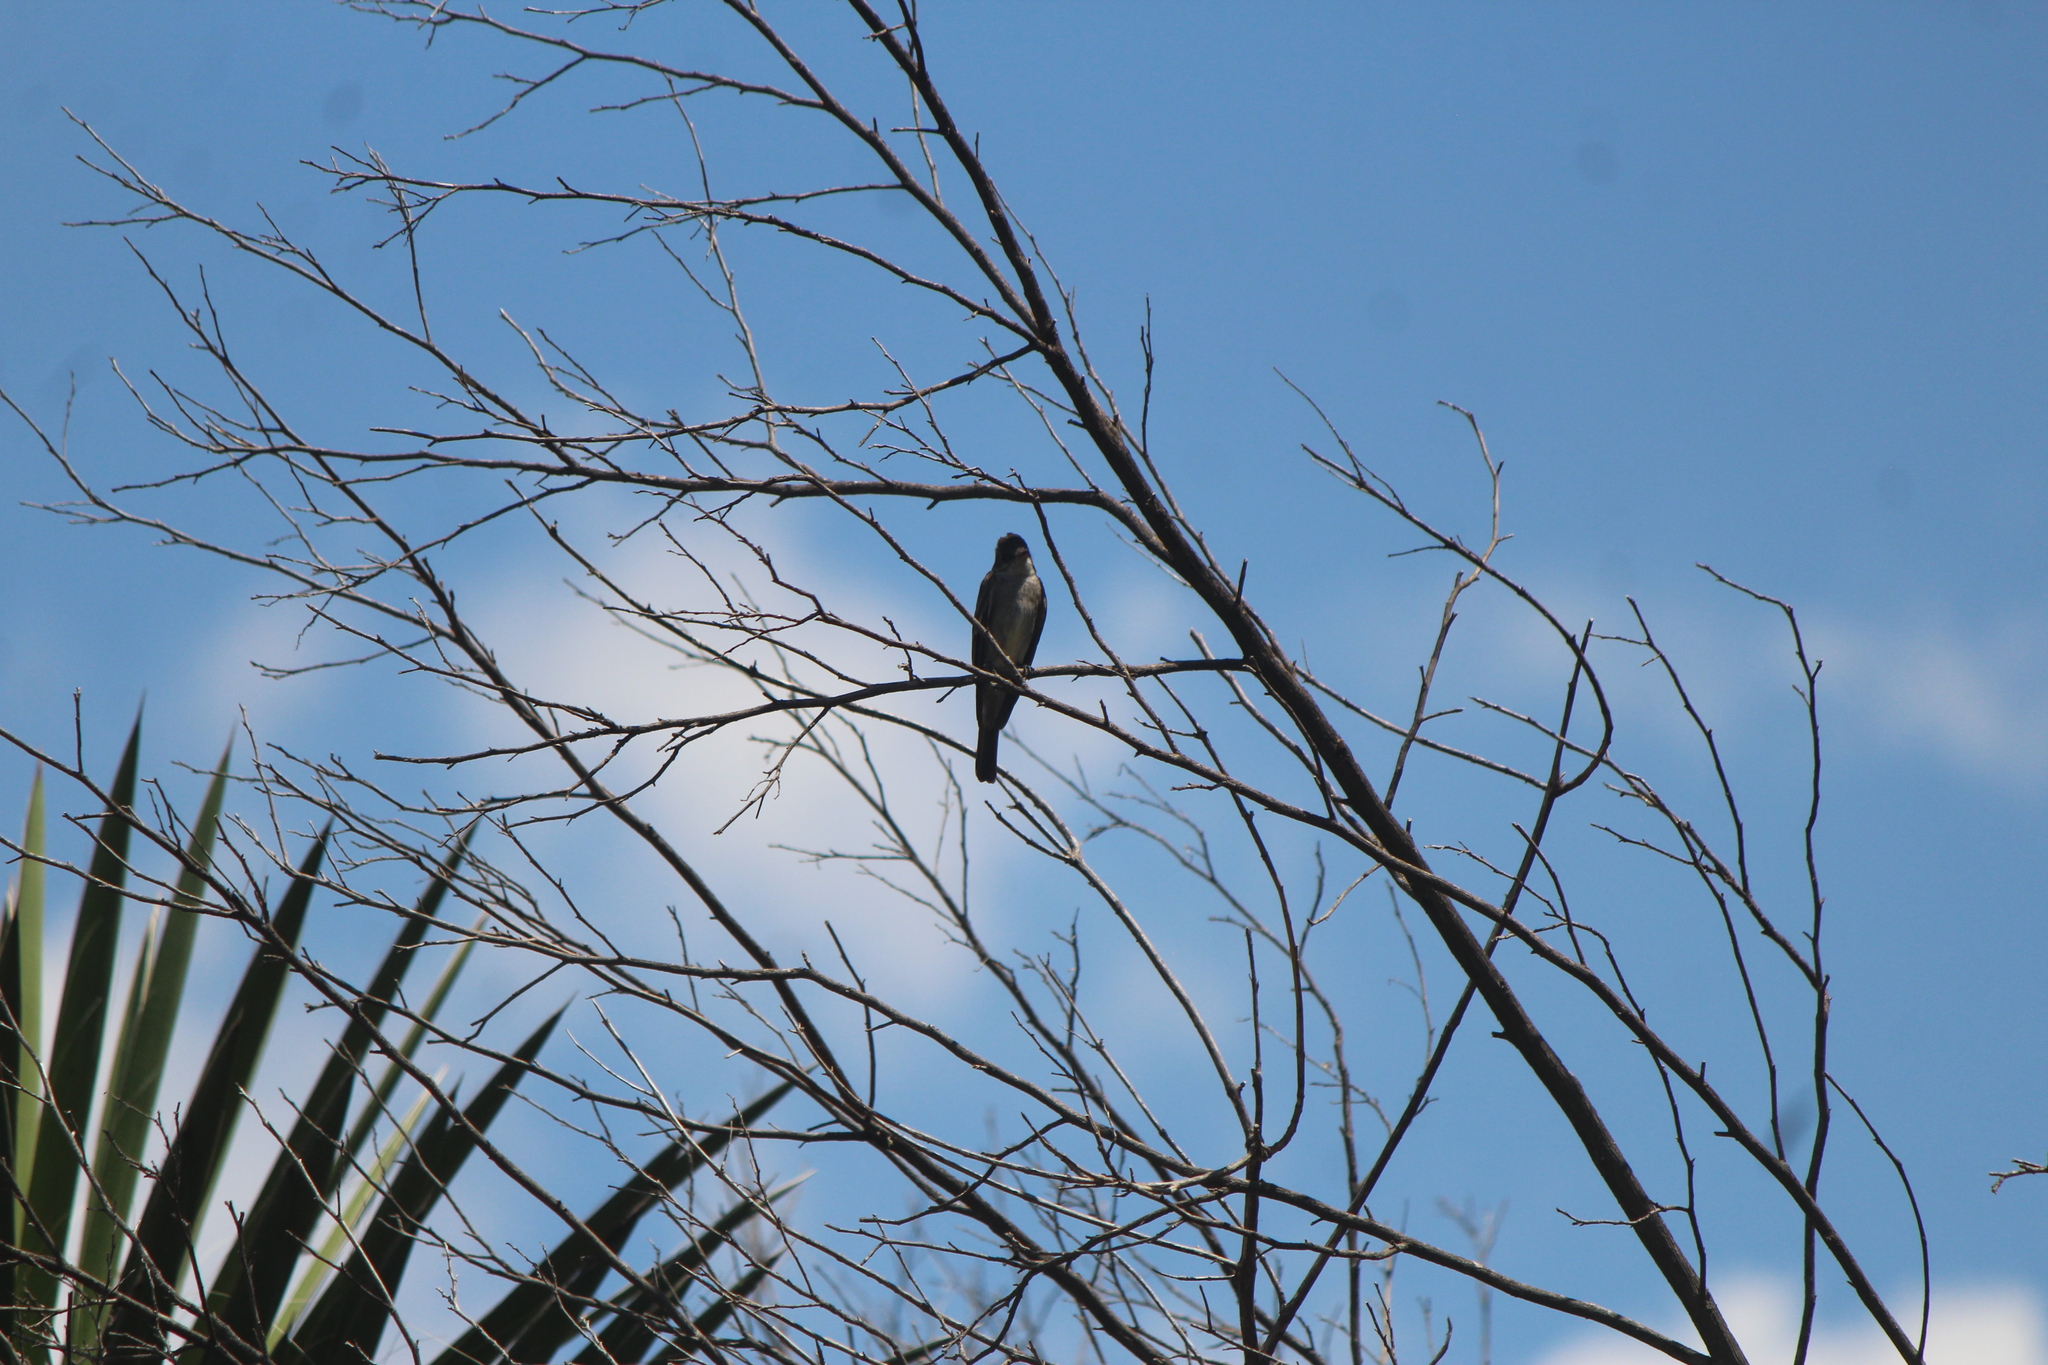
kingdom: Animalia
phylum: Chordata
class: Aves
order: Passeriformes
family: Tyrannidae
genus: Contopus
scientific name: Contopus cooperi
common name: Olive-sided flycatcher
